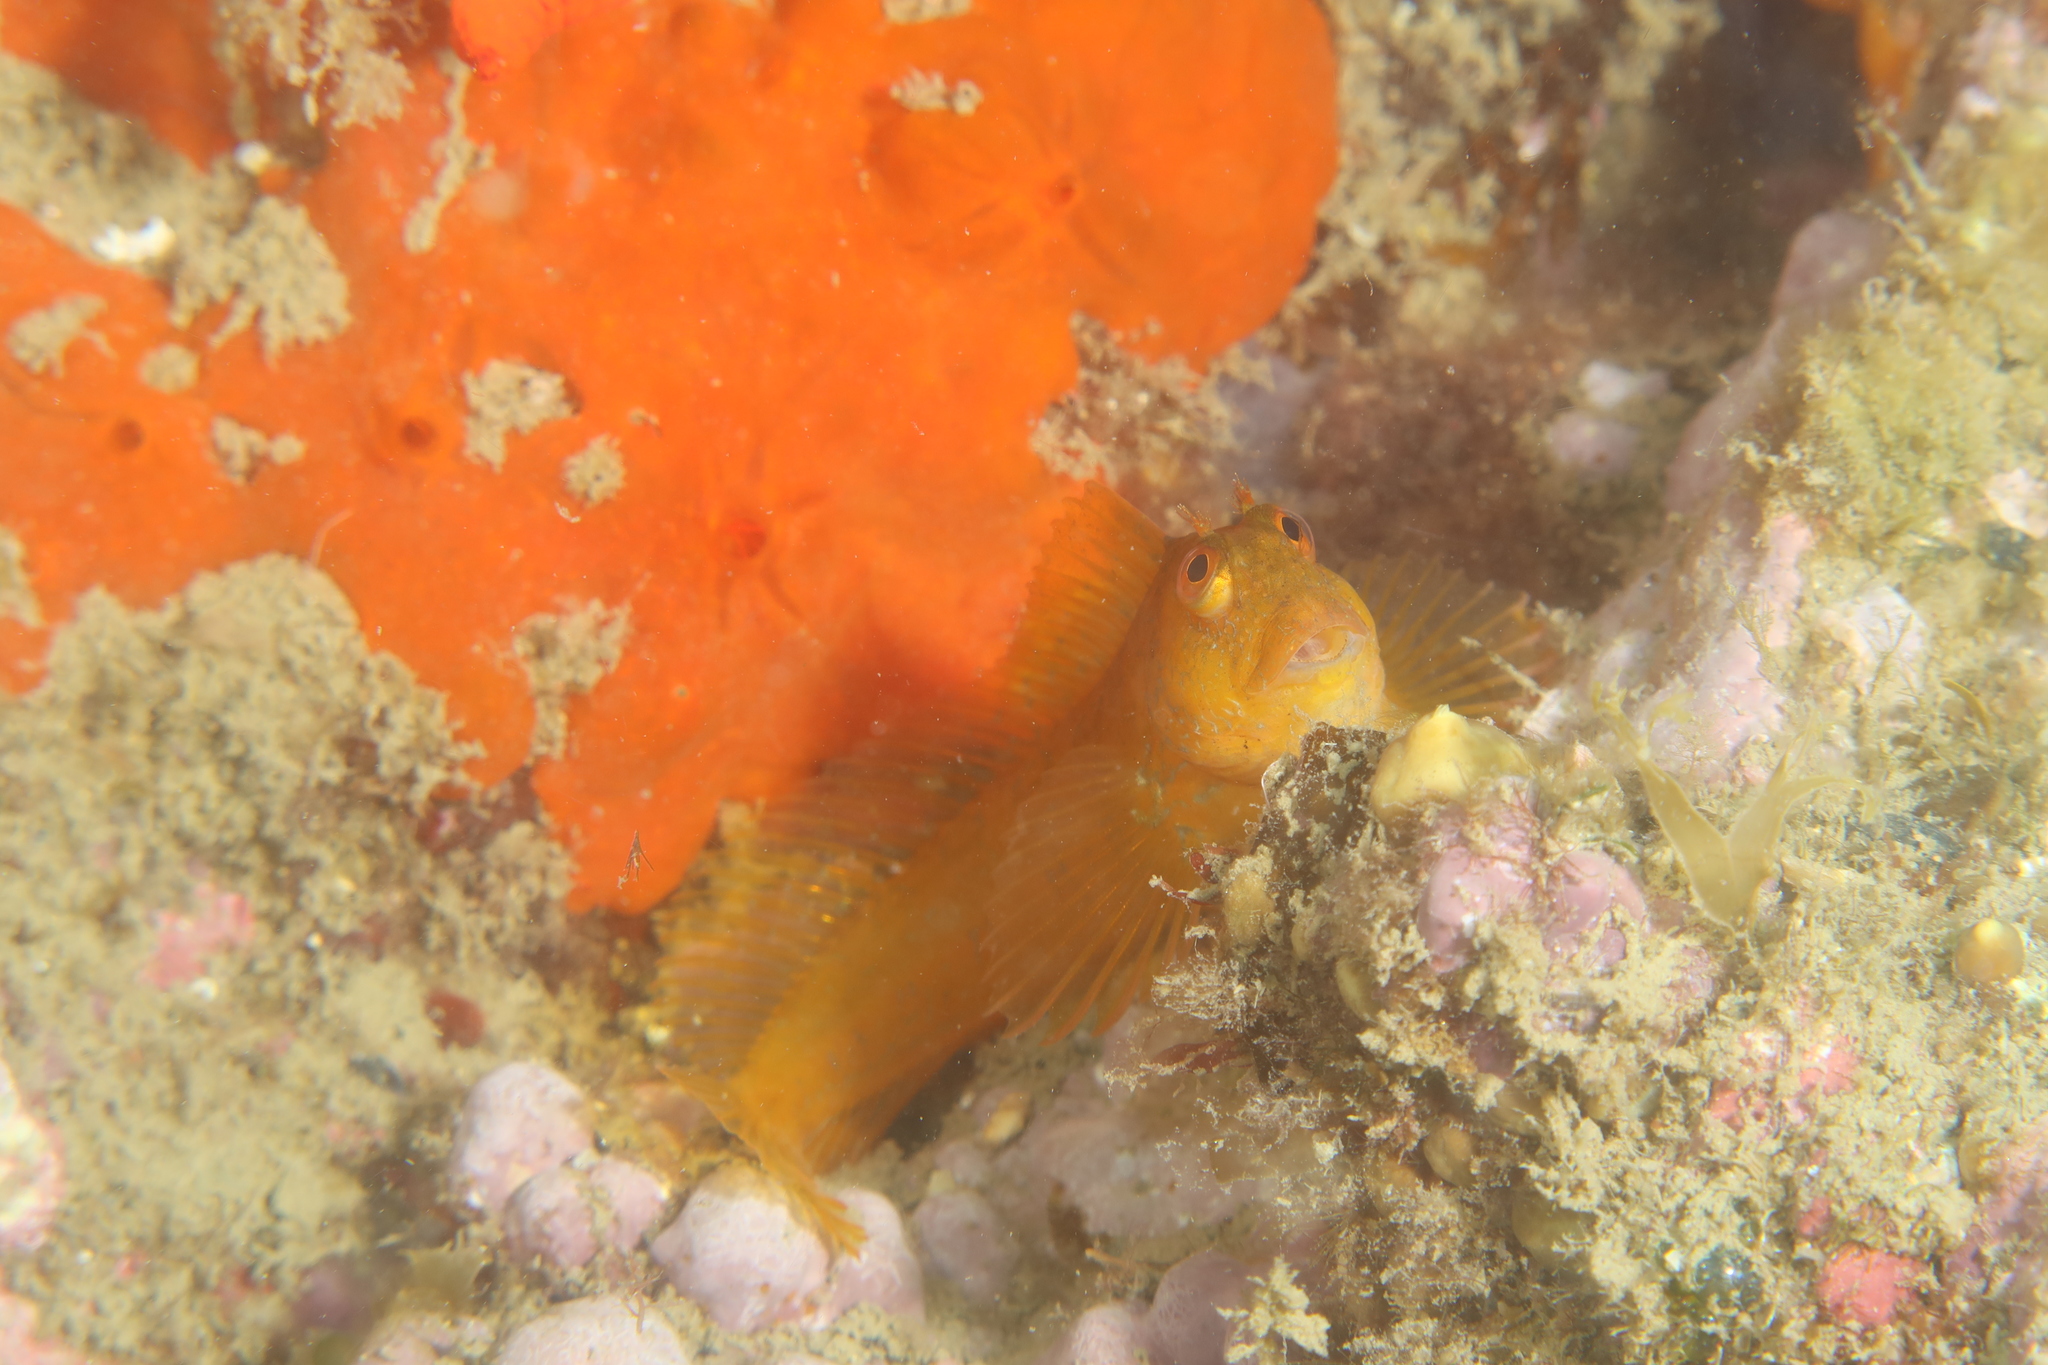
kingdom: Animalia
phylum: Chordata
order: Perciformes
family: Blenniidae
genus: Parablennius
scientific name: Parablennius pilicornis
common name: Ringneck blenny
